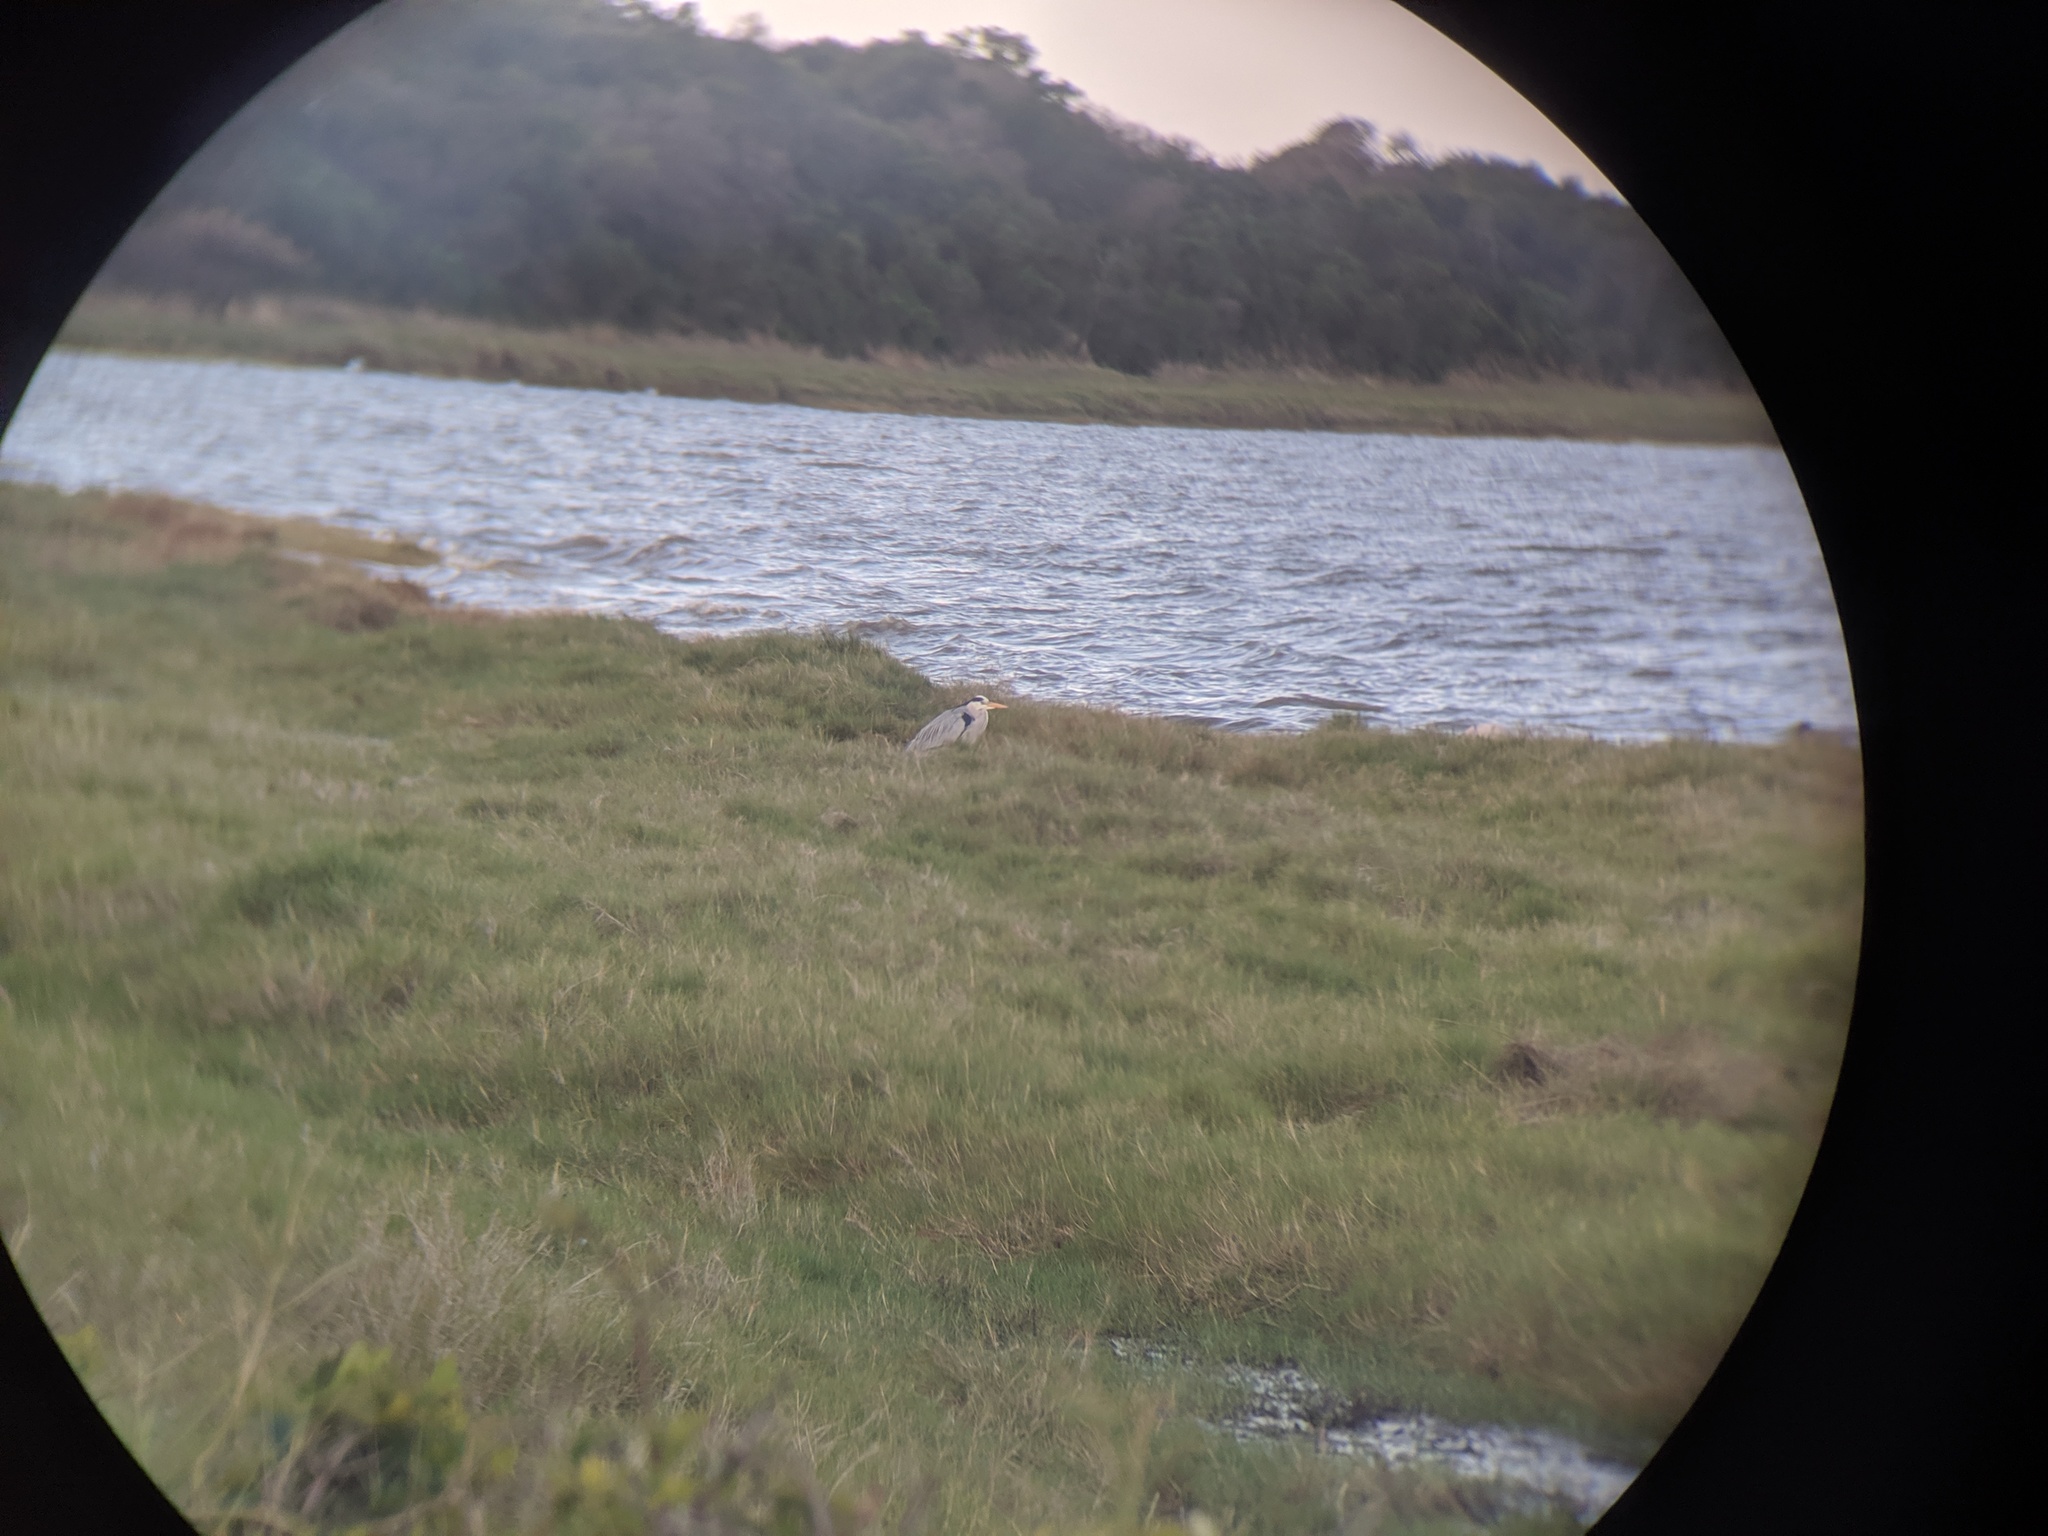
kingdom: Animalia
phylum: Chordata
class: Aves
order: Pelecaniformes
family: Ardeidae
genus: Ardea
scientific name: Ardea cinerea
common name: Grey heron
